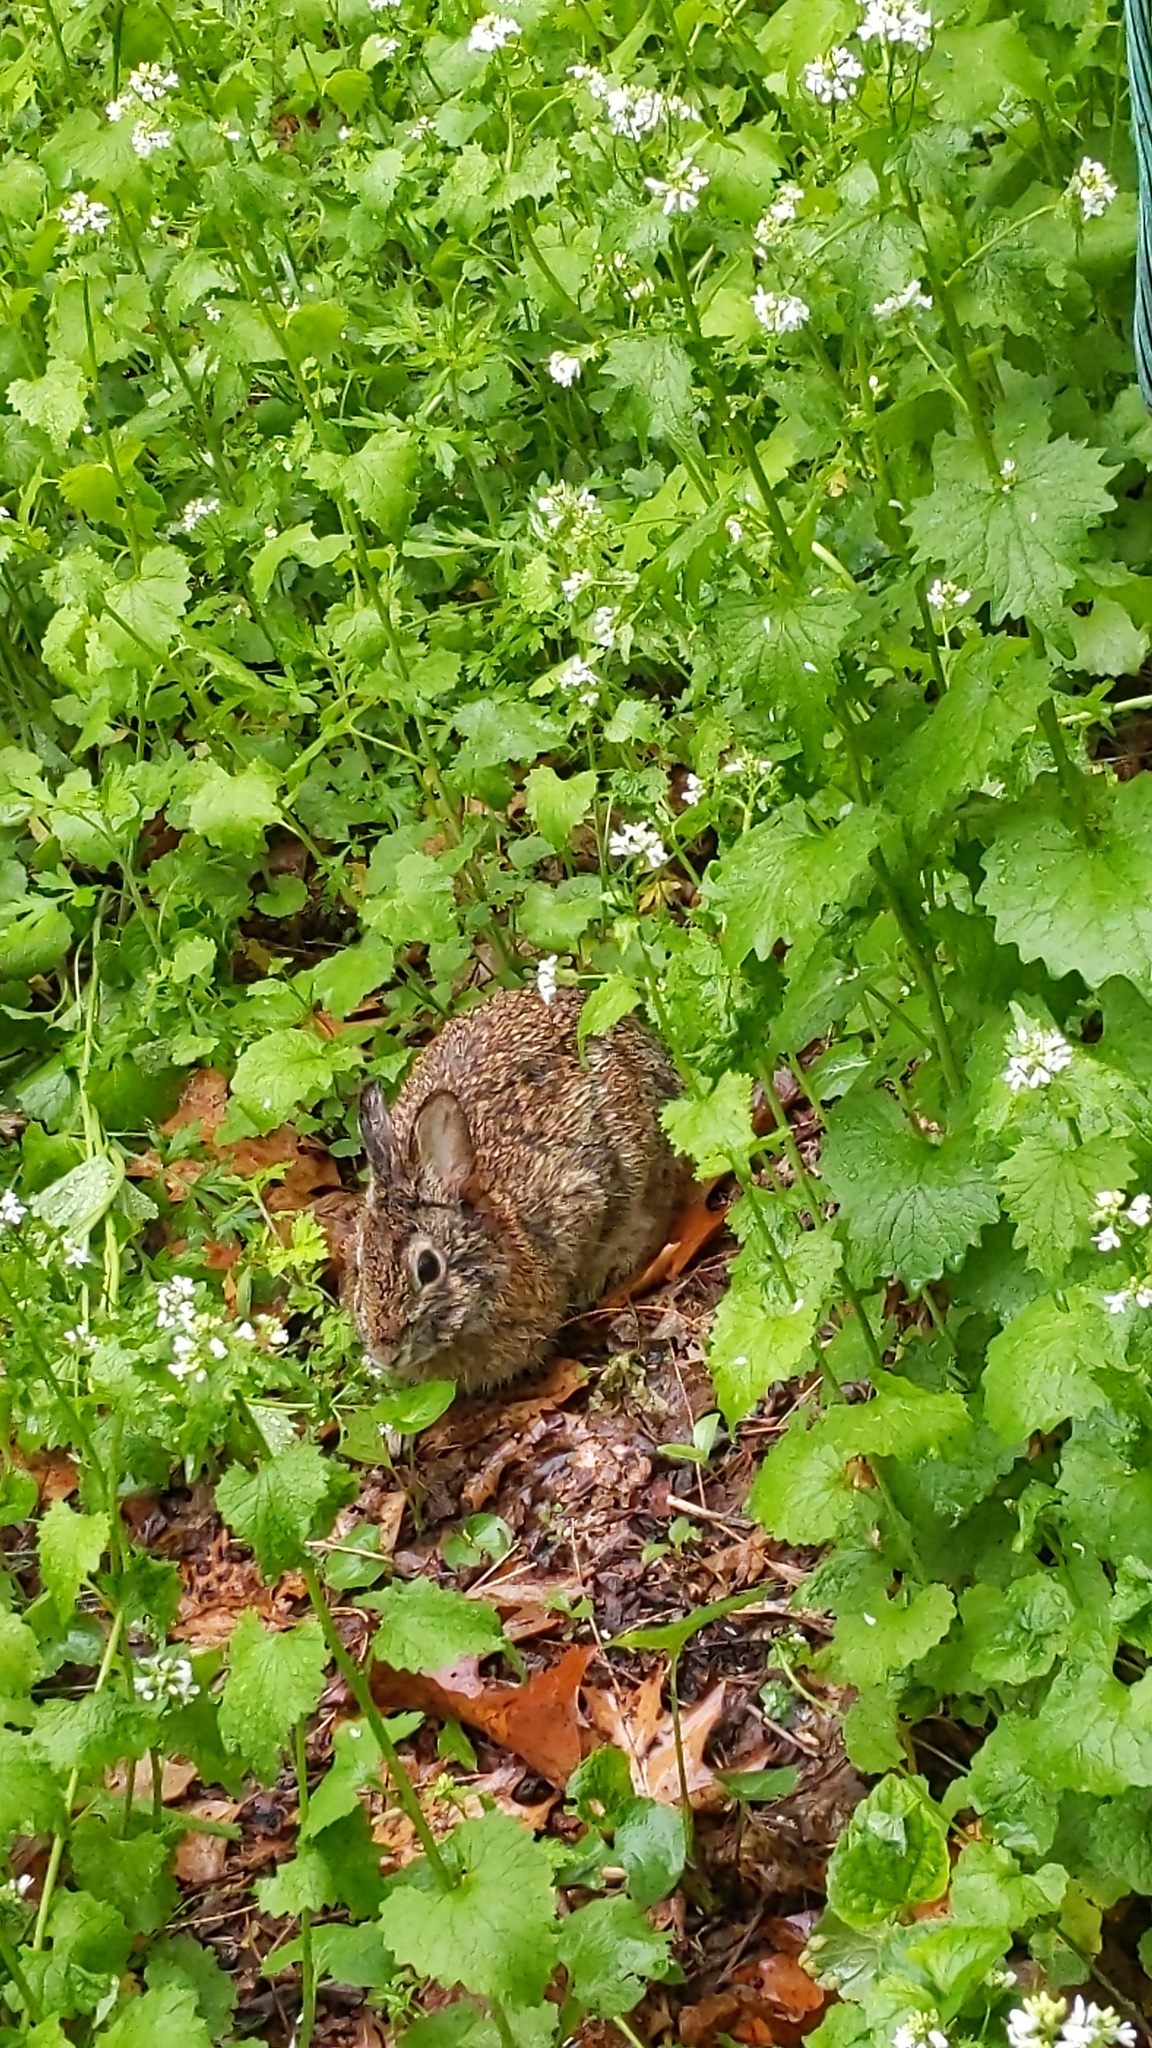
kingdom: Animalia
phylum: Chordata
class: Mammalia
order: Lagomorpha
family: Leporidae
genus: Sylvilagus
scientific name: Sylvilagus floridanus
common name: Eastern cottontail
